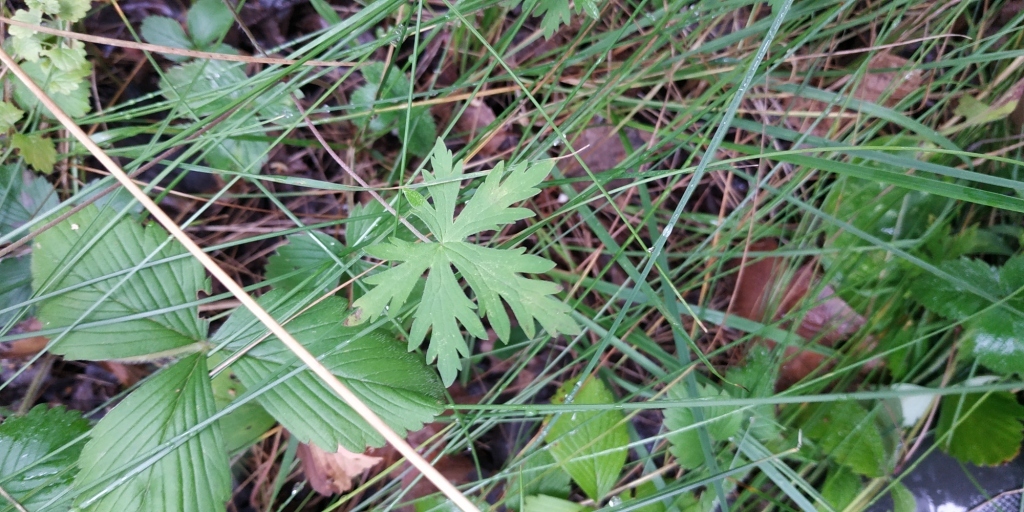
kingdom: Plantae
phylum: Tracheophyta
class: Magnoliopsida
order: Geraniales
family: Geraniaceae
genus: Geranium
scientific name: Geranium sibiricum
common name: Siberian crane's-bill
